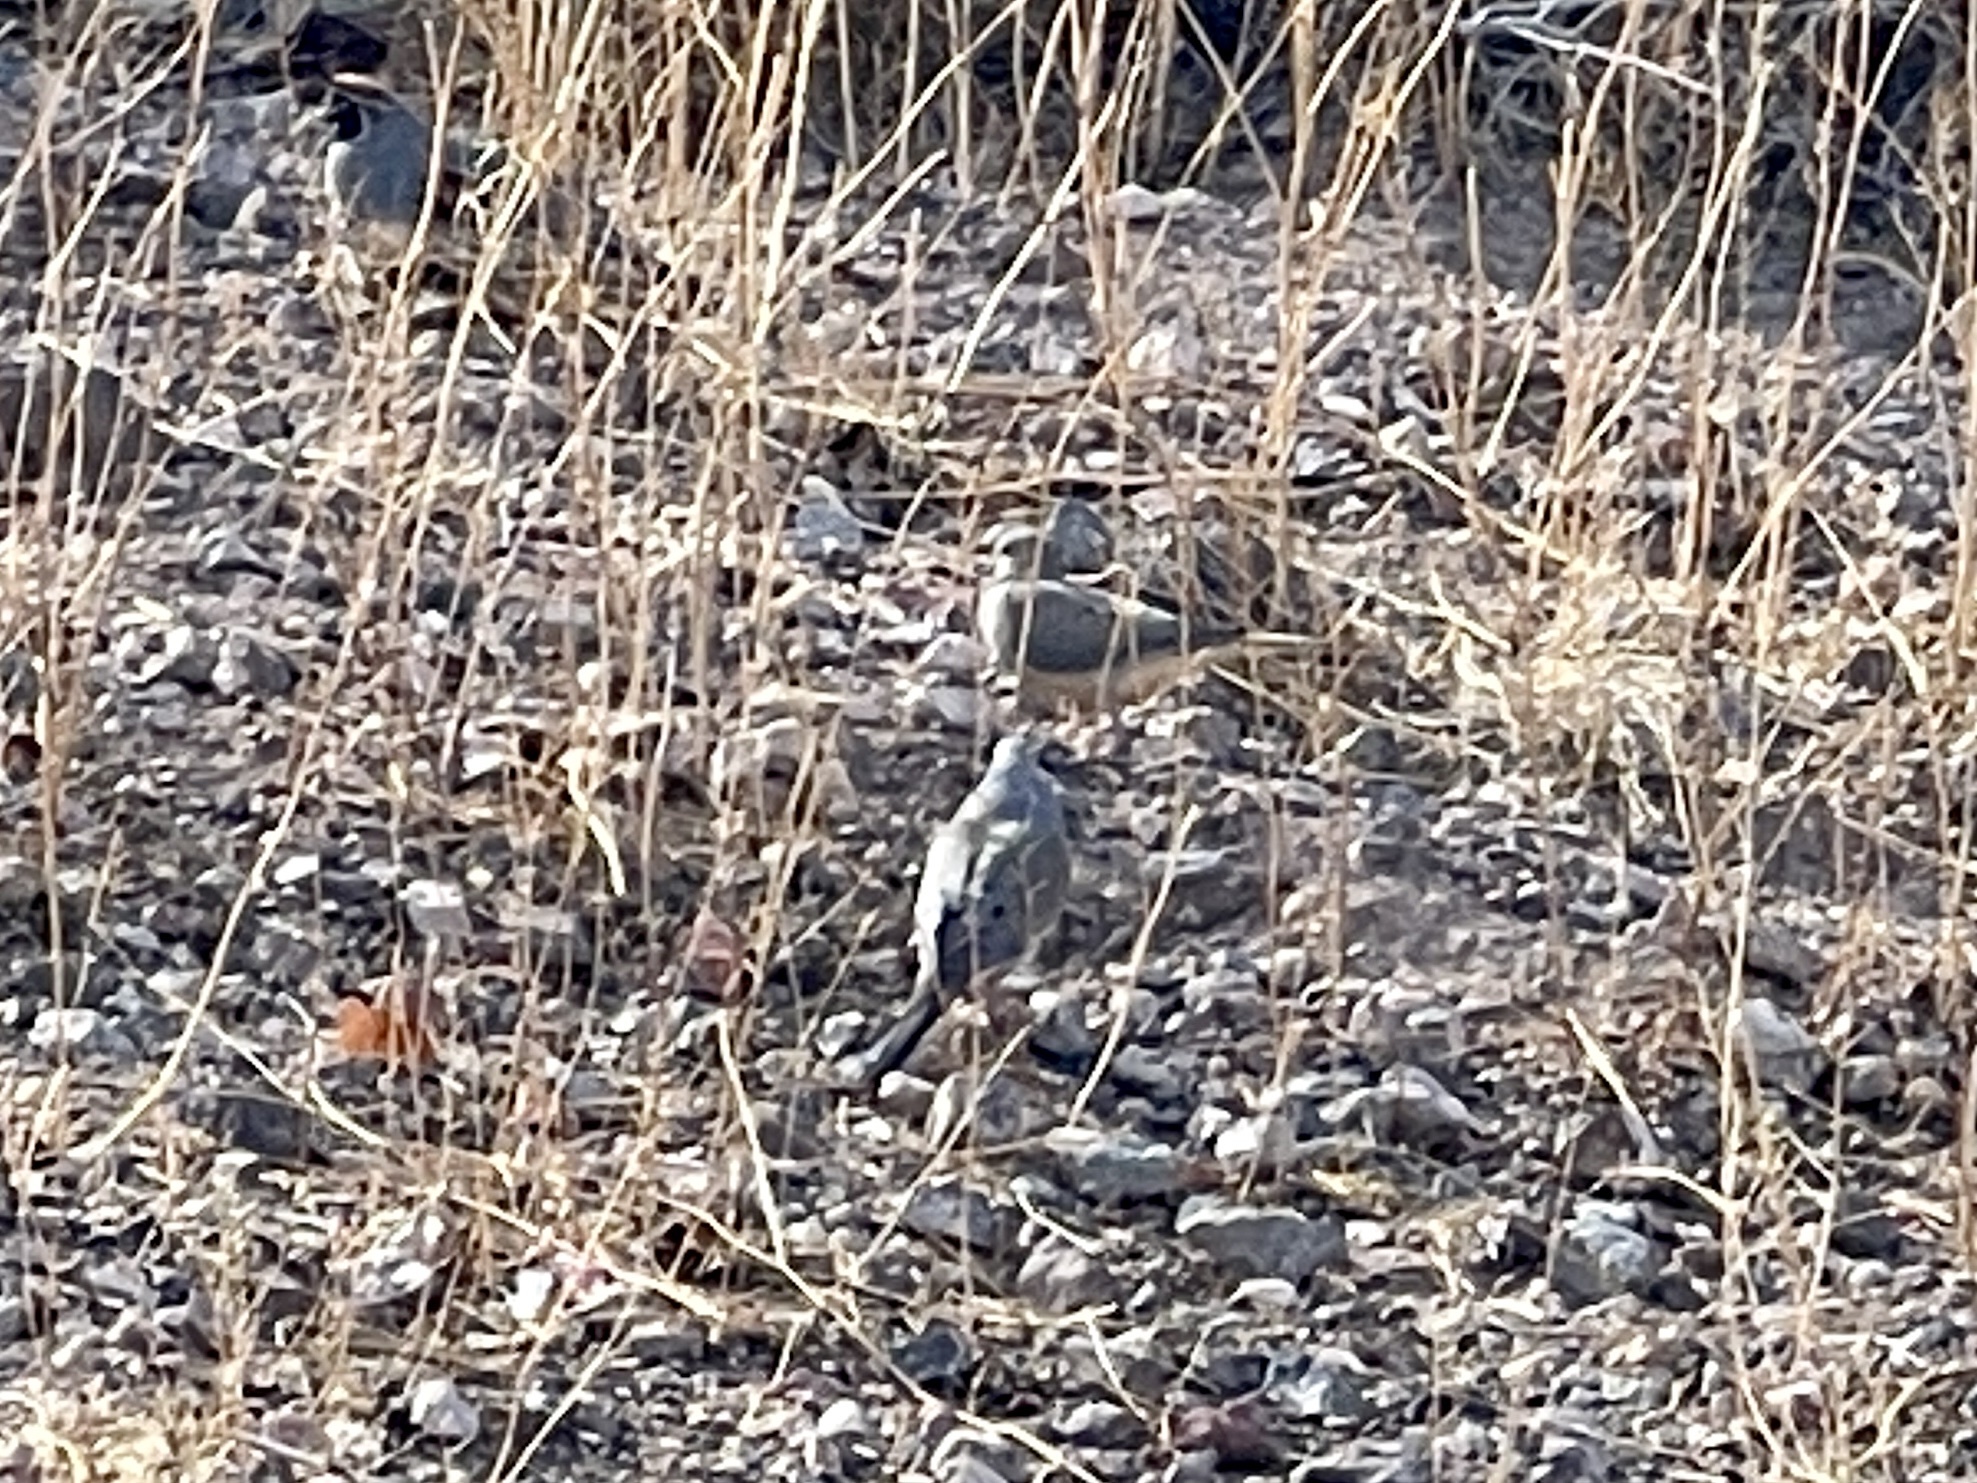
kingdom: Animalia
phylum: Chordata
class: Aves
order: Columbiformes
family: Columbidae
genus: Zenaida
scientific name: Zenaida macroura
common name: Mourning dove
